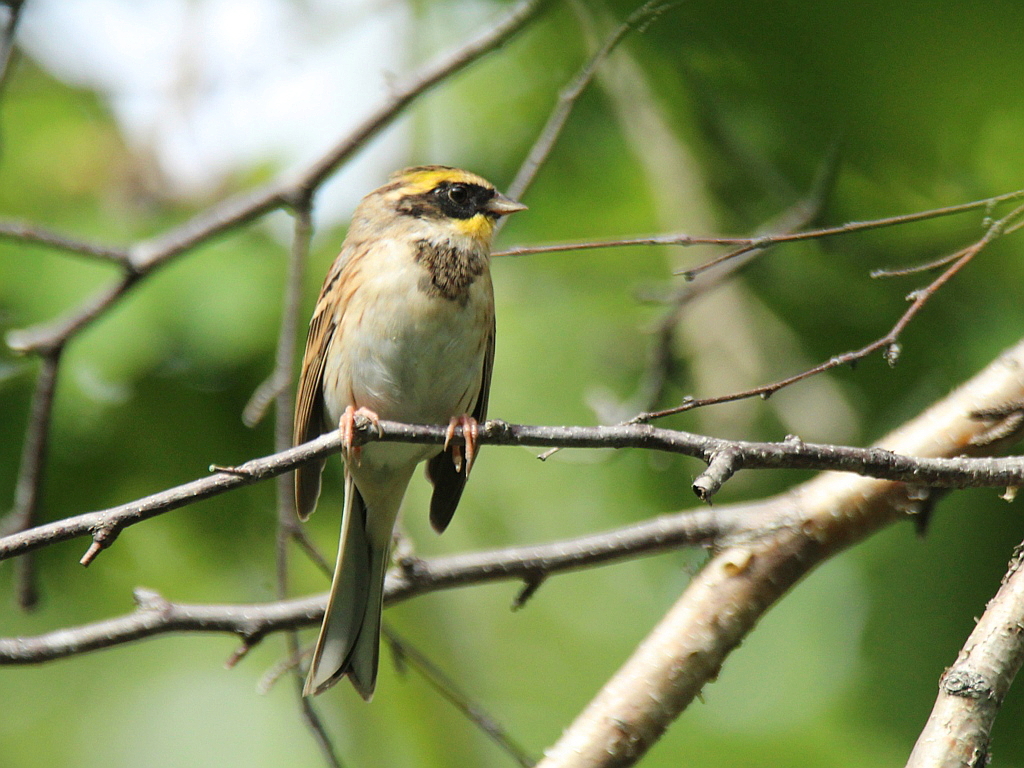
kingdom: Animalia
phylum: Chordata
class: Aves
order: Passeriformes
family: Emberizidae
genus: Emberiza
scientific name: Emberiza elegans
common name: Yellow-throated bunting
